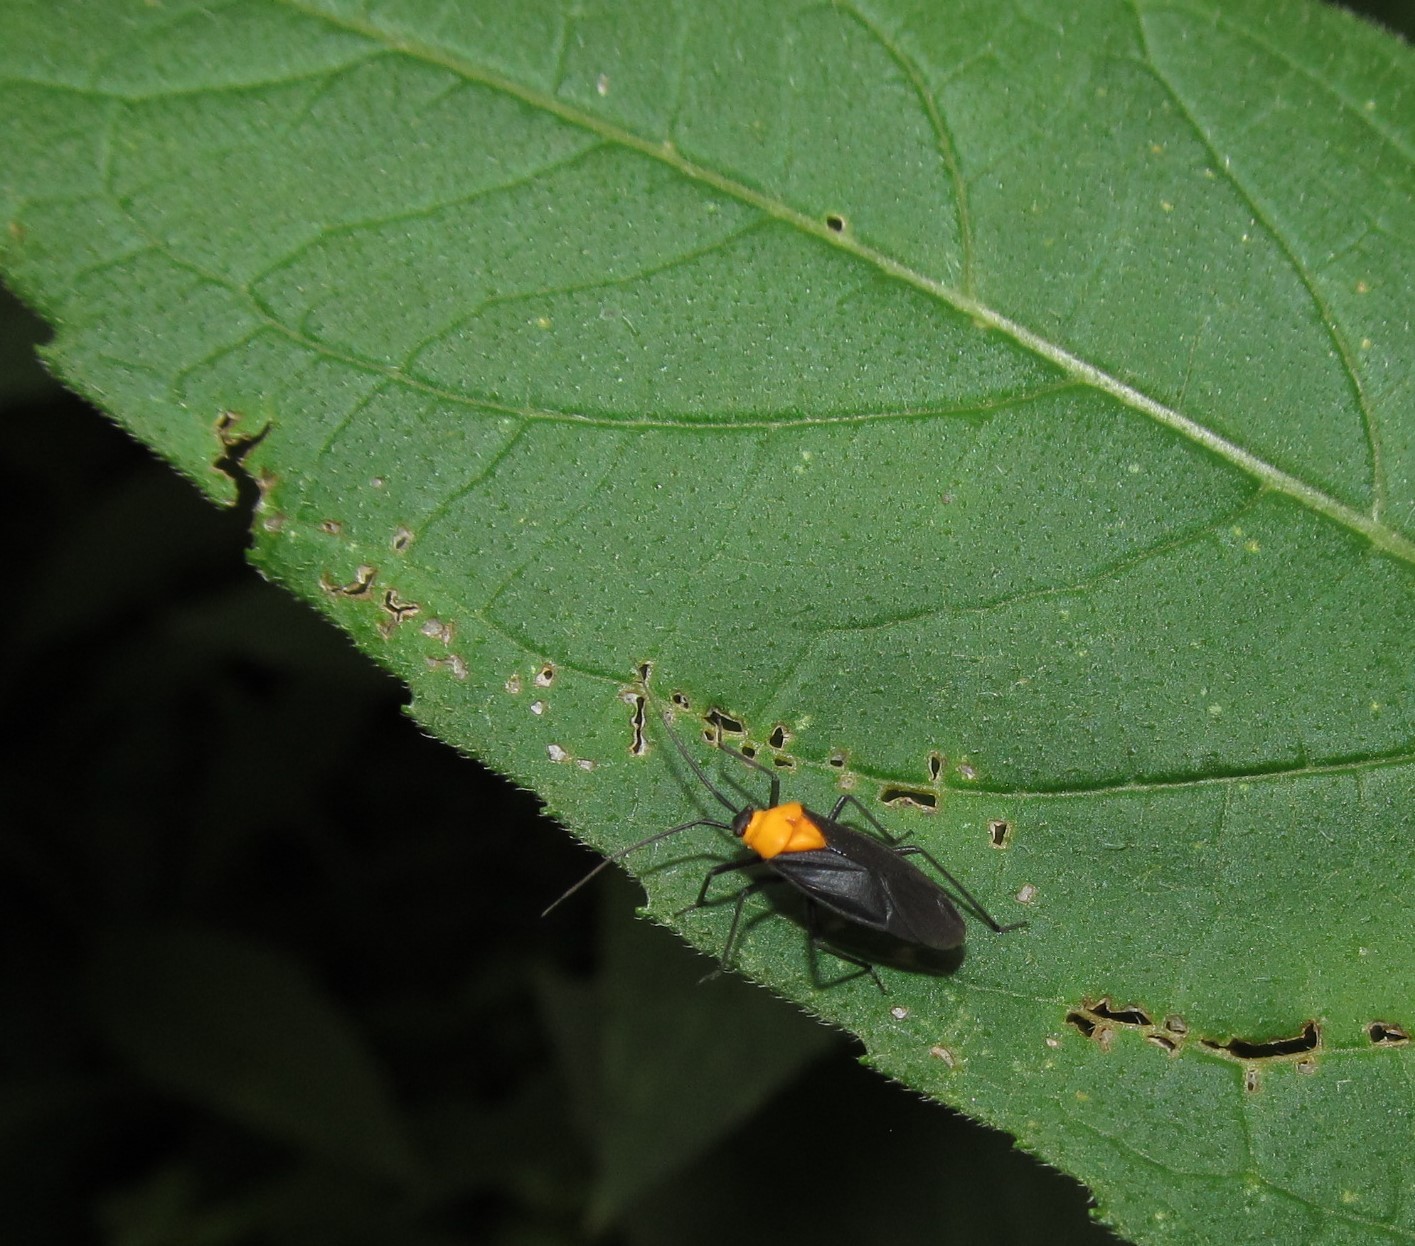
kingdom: Animalia
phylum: Arthropoda
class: Insecta
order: Hemiptera
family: Miridae
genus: Prepops
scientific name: Prepops insitivus
